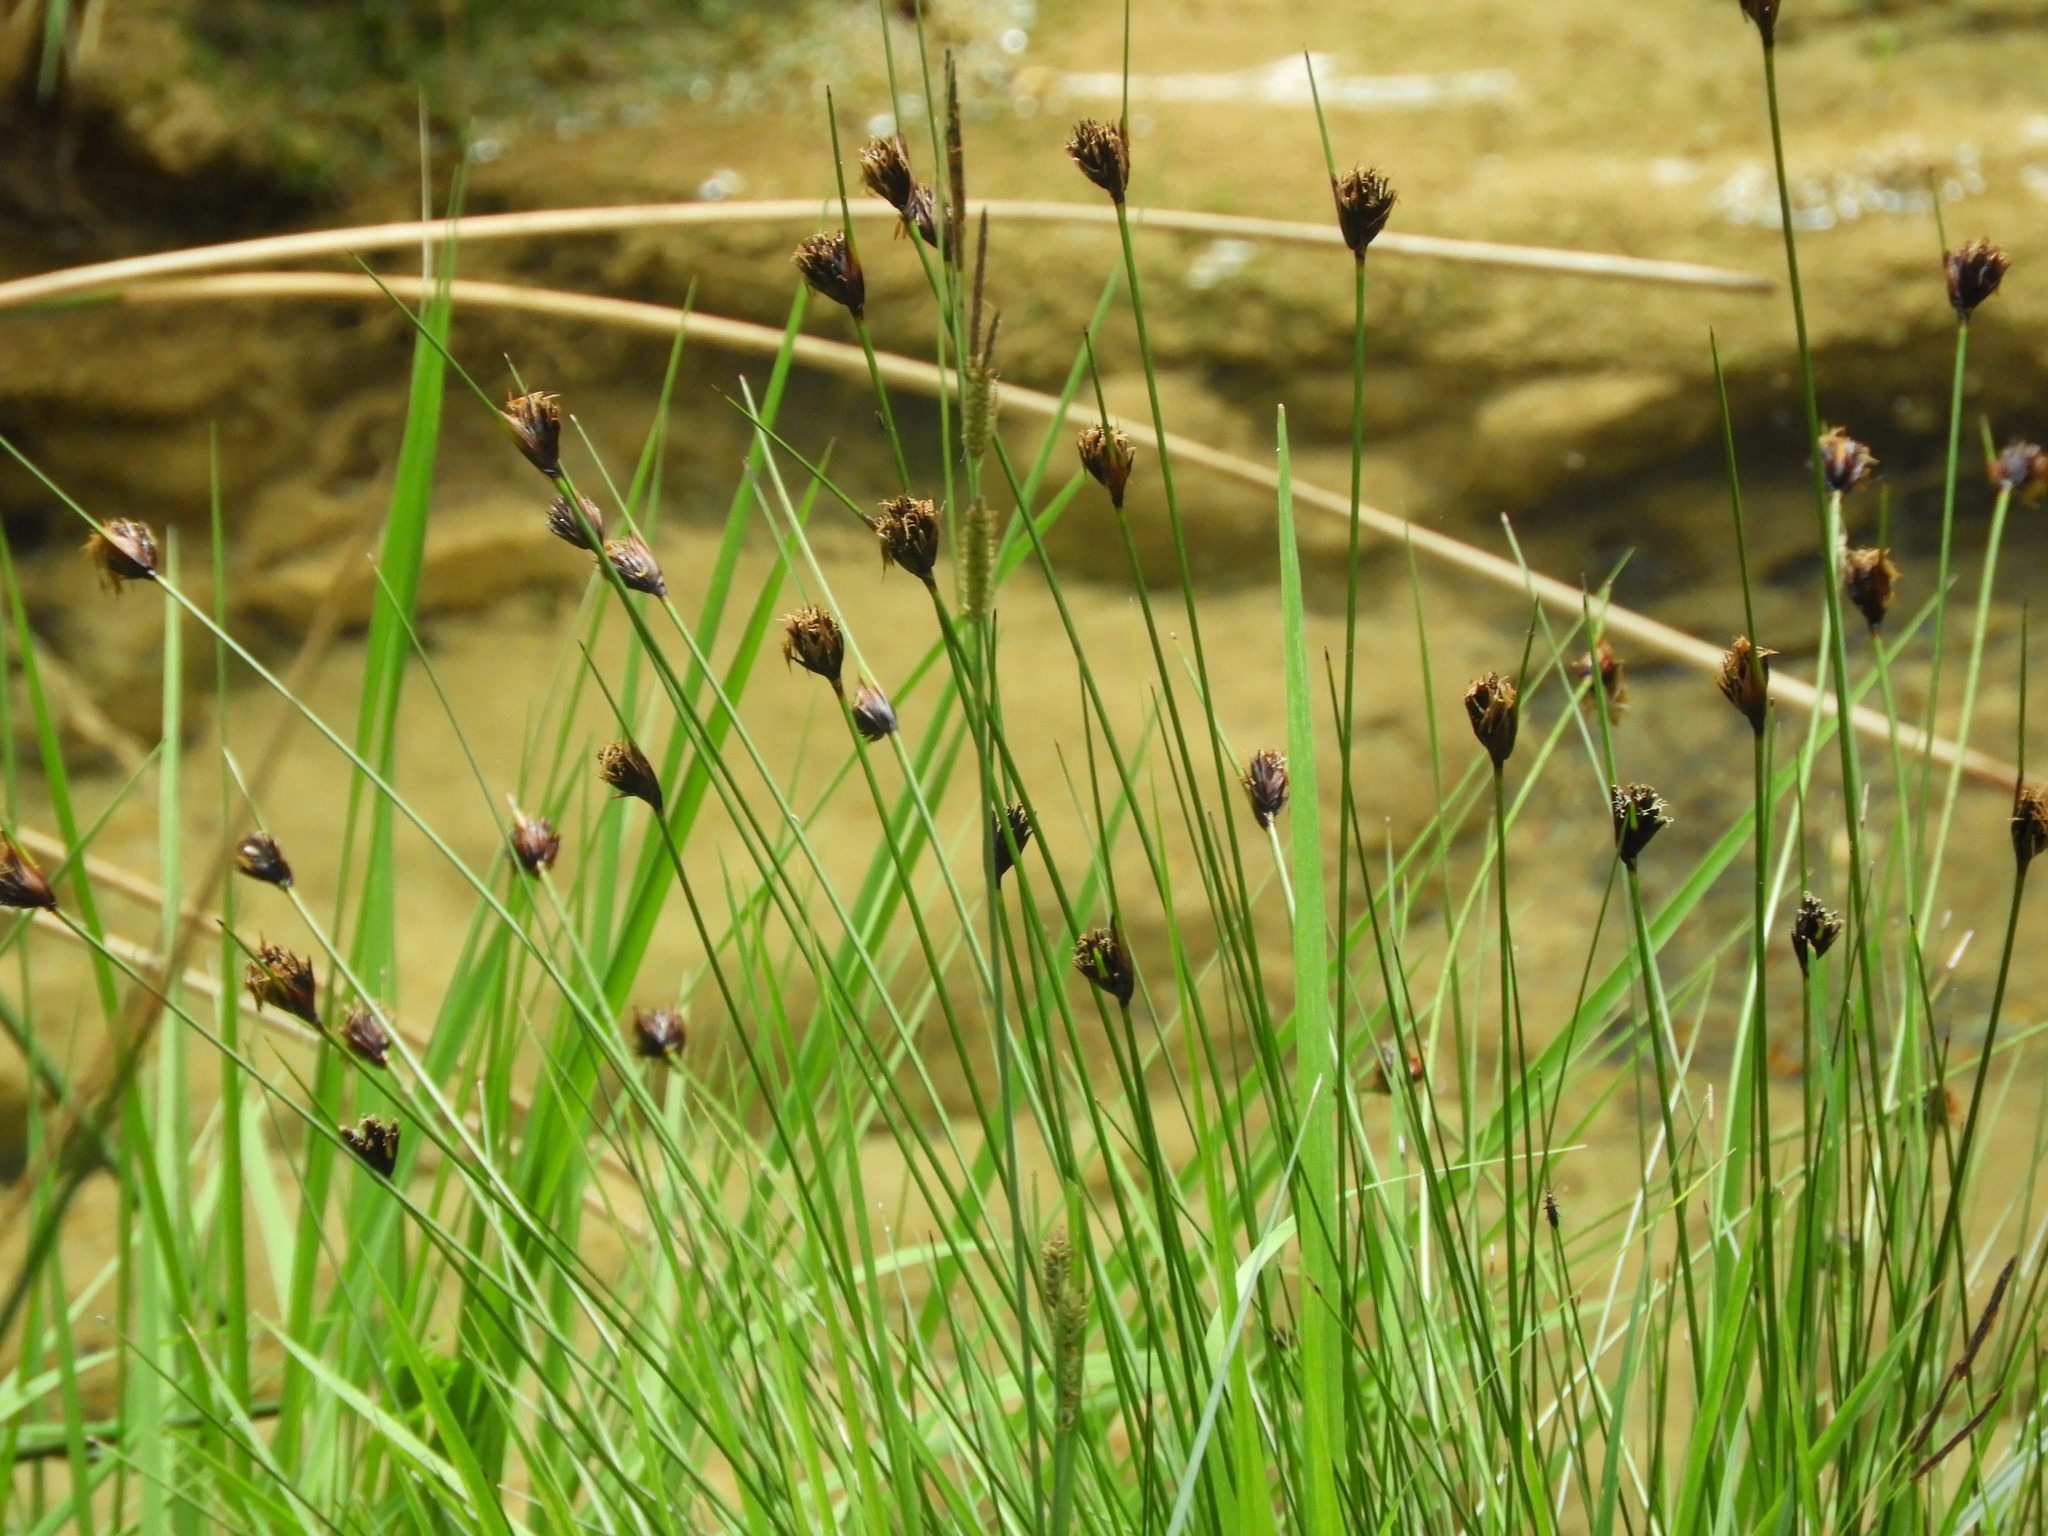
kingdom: Plantae
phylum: Tracheophyta
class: Liliopsida
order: Poales
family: Cyperaceae
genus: Schoenus
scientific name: Schoenus nigricans
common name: Black bog-rush
